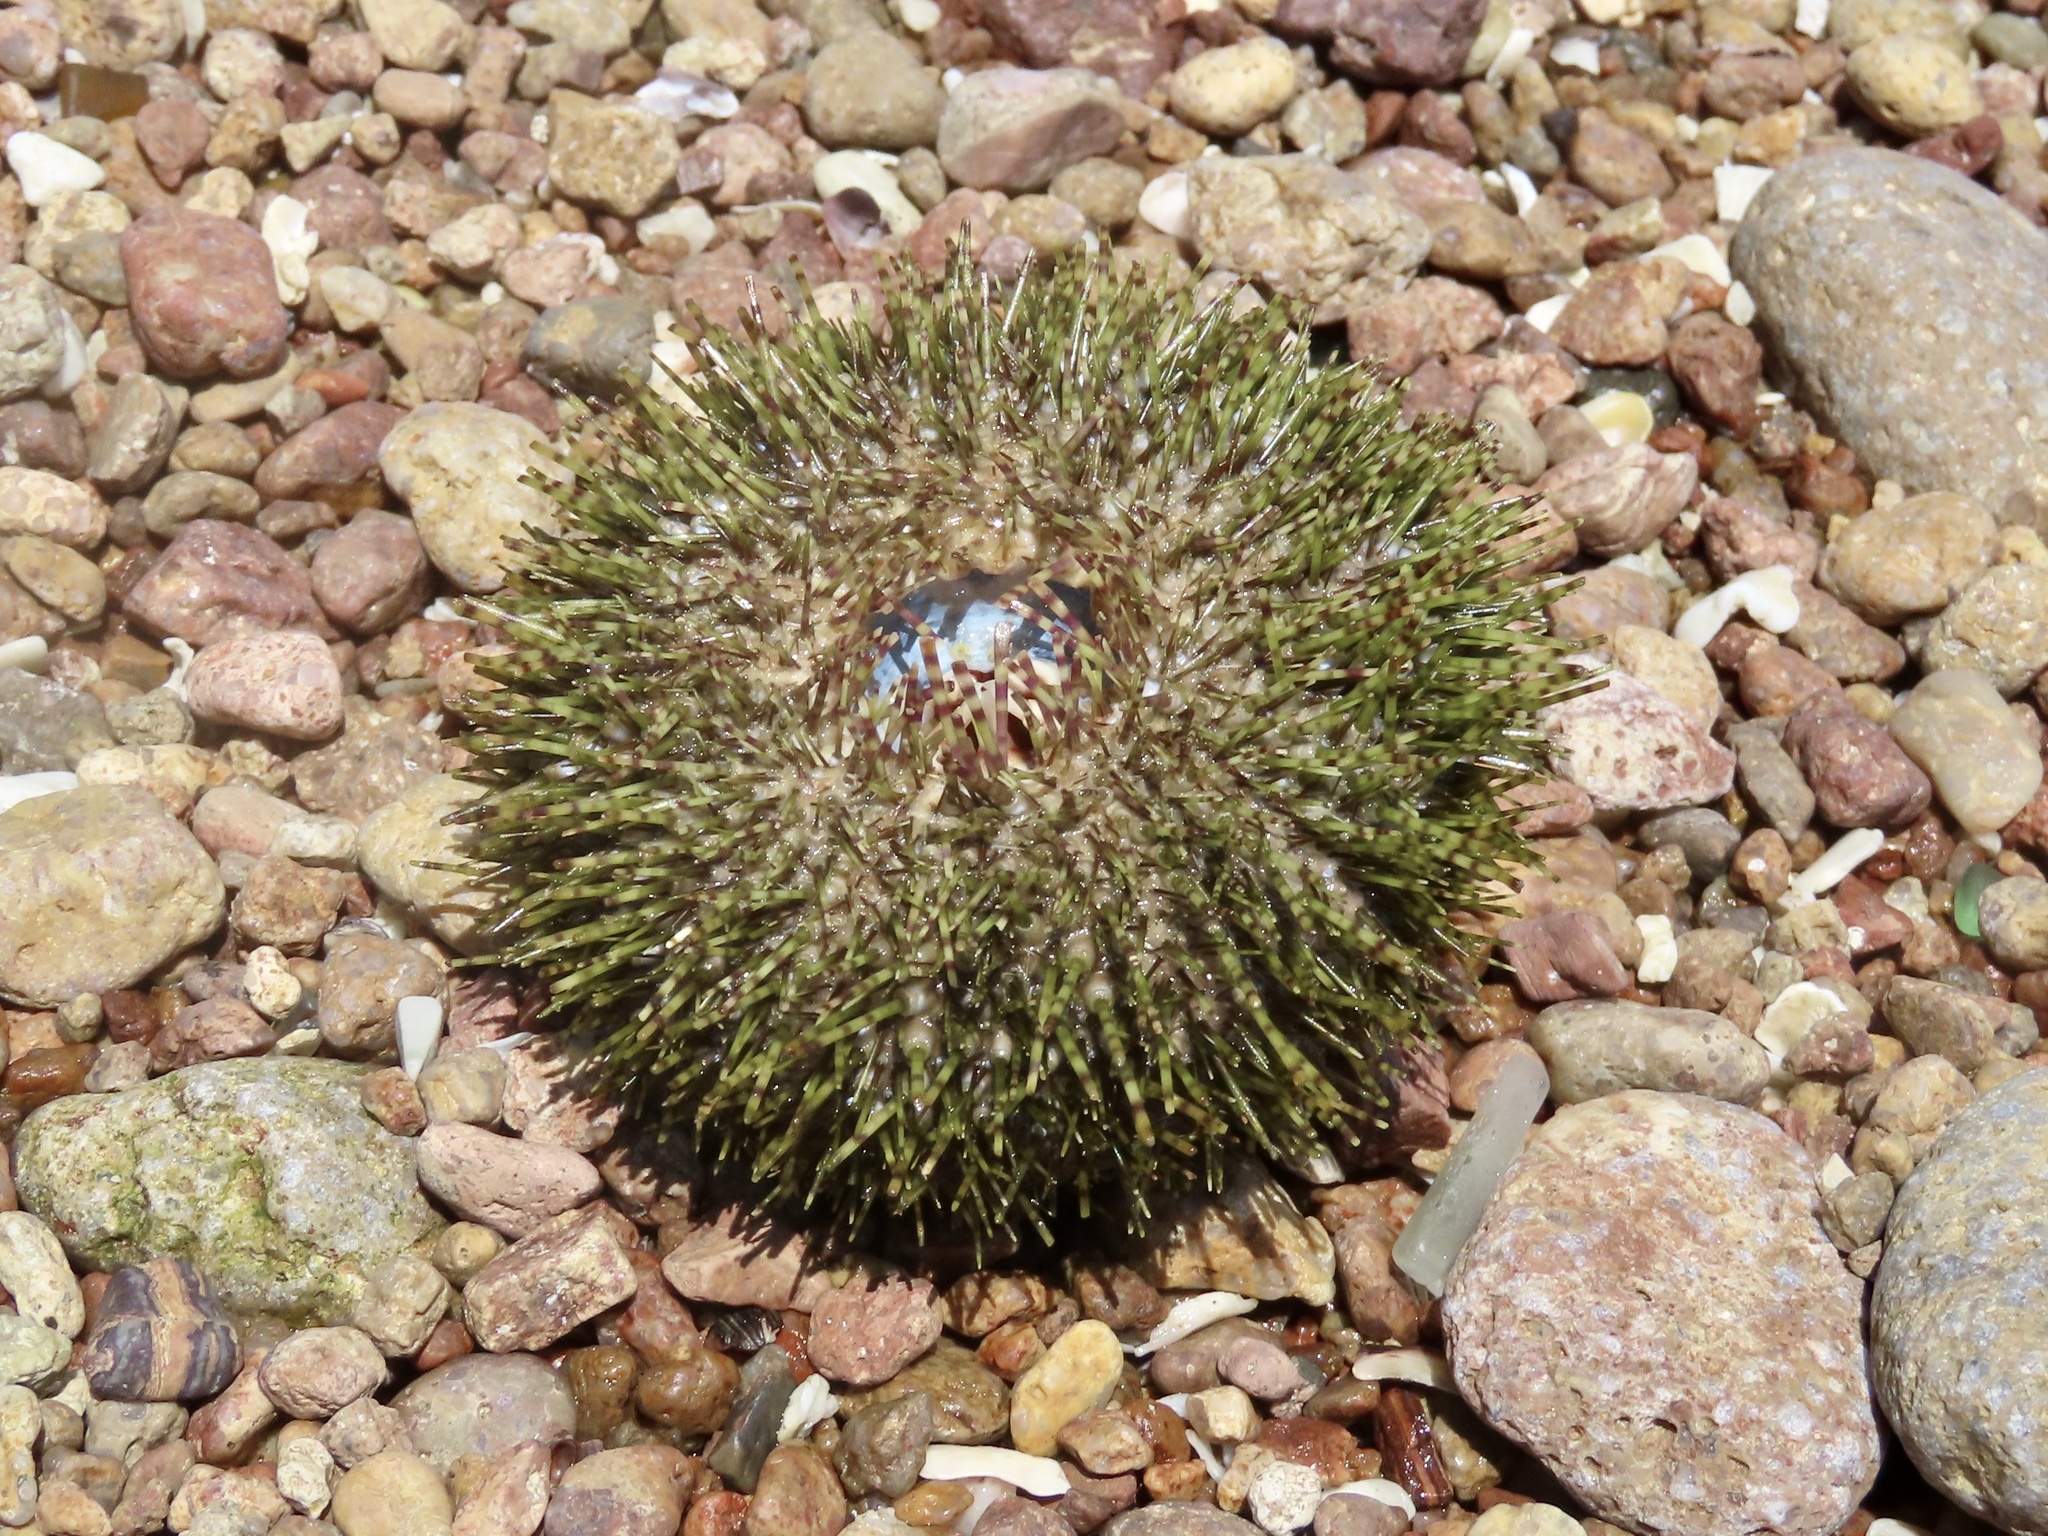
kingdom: Animalia
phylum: Echinodermata
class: Echinoidea
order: Camarodonta
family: Temnopleuridae
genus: Salmacis
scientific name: Salmacis sphaeroides
